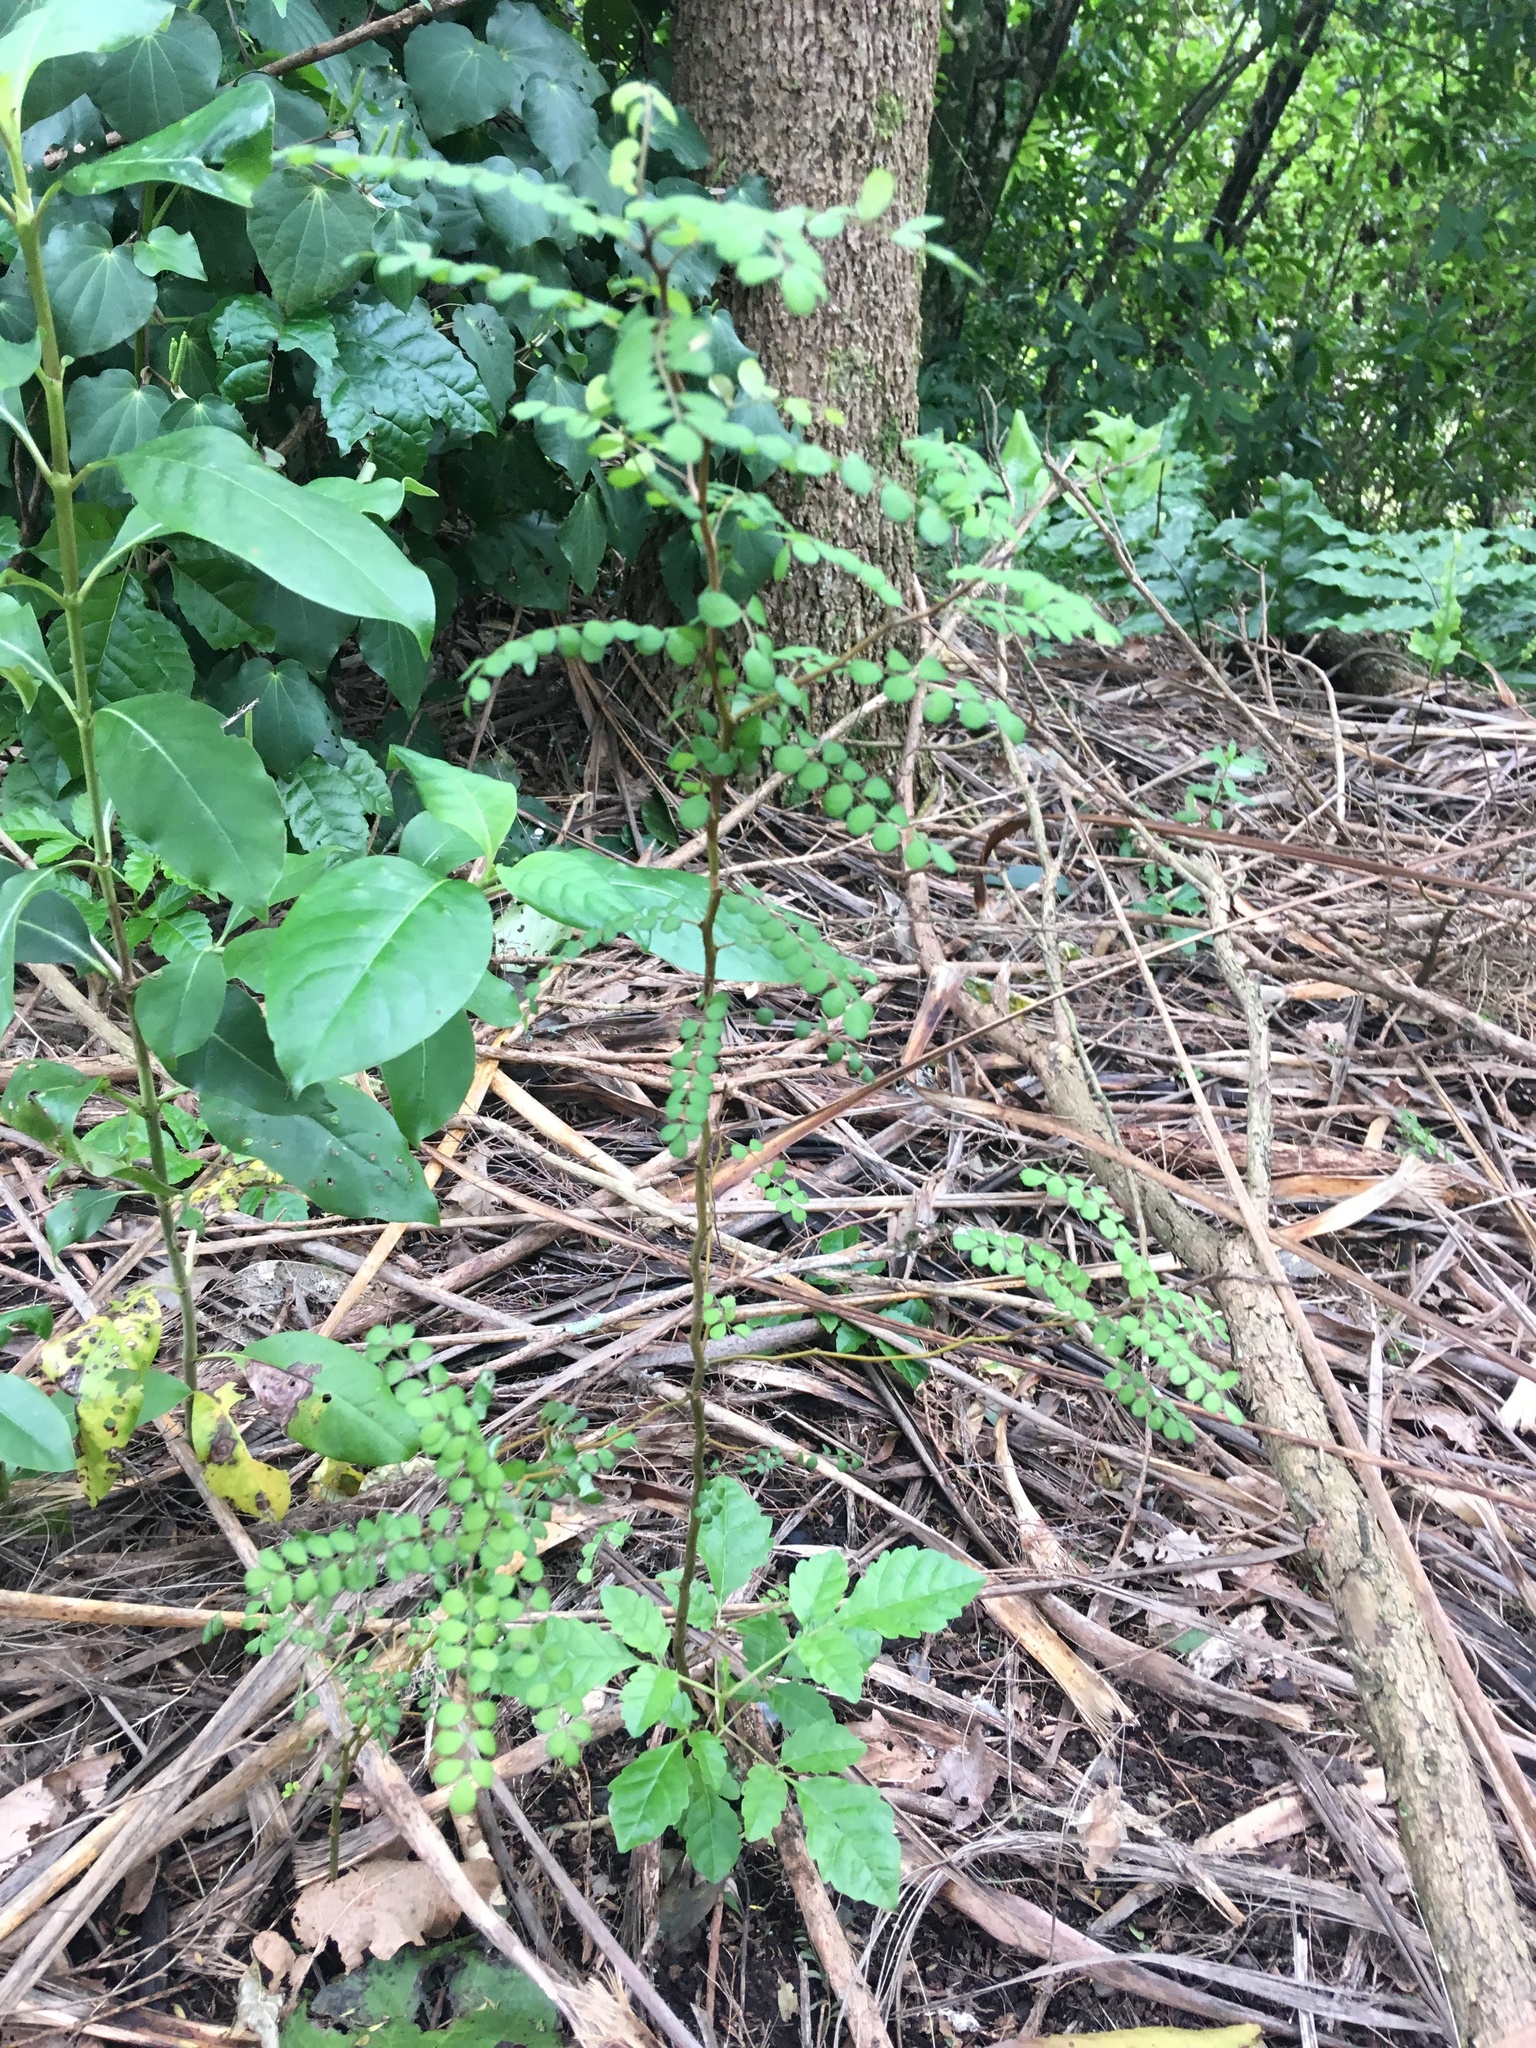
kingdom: Plantae
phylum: Tracheophyta
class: Magnoliopsida
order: Lamiales
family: Lamiaceae
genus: Vitex
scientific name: Vitex lucens
